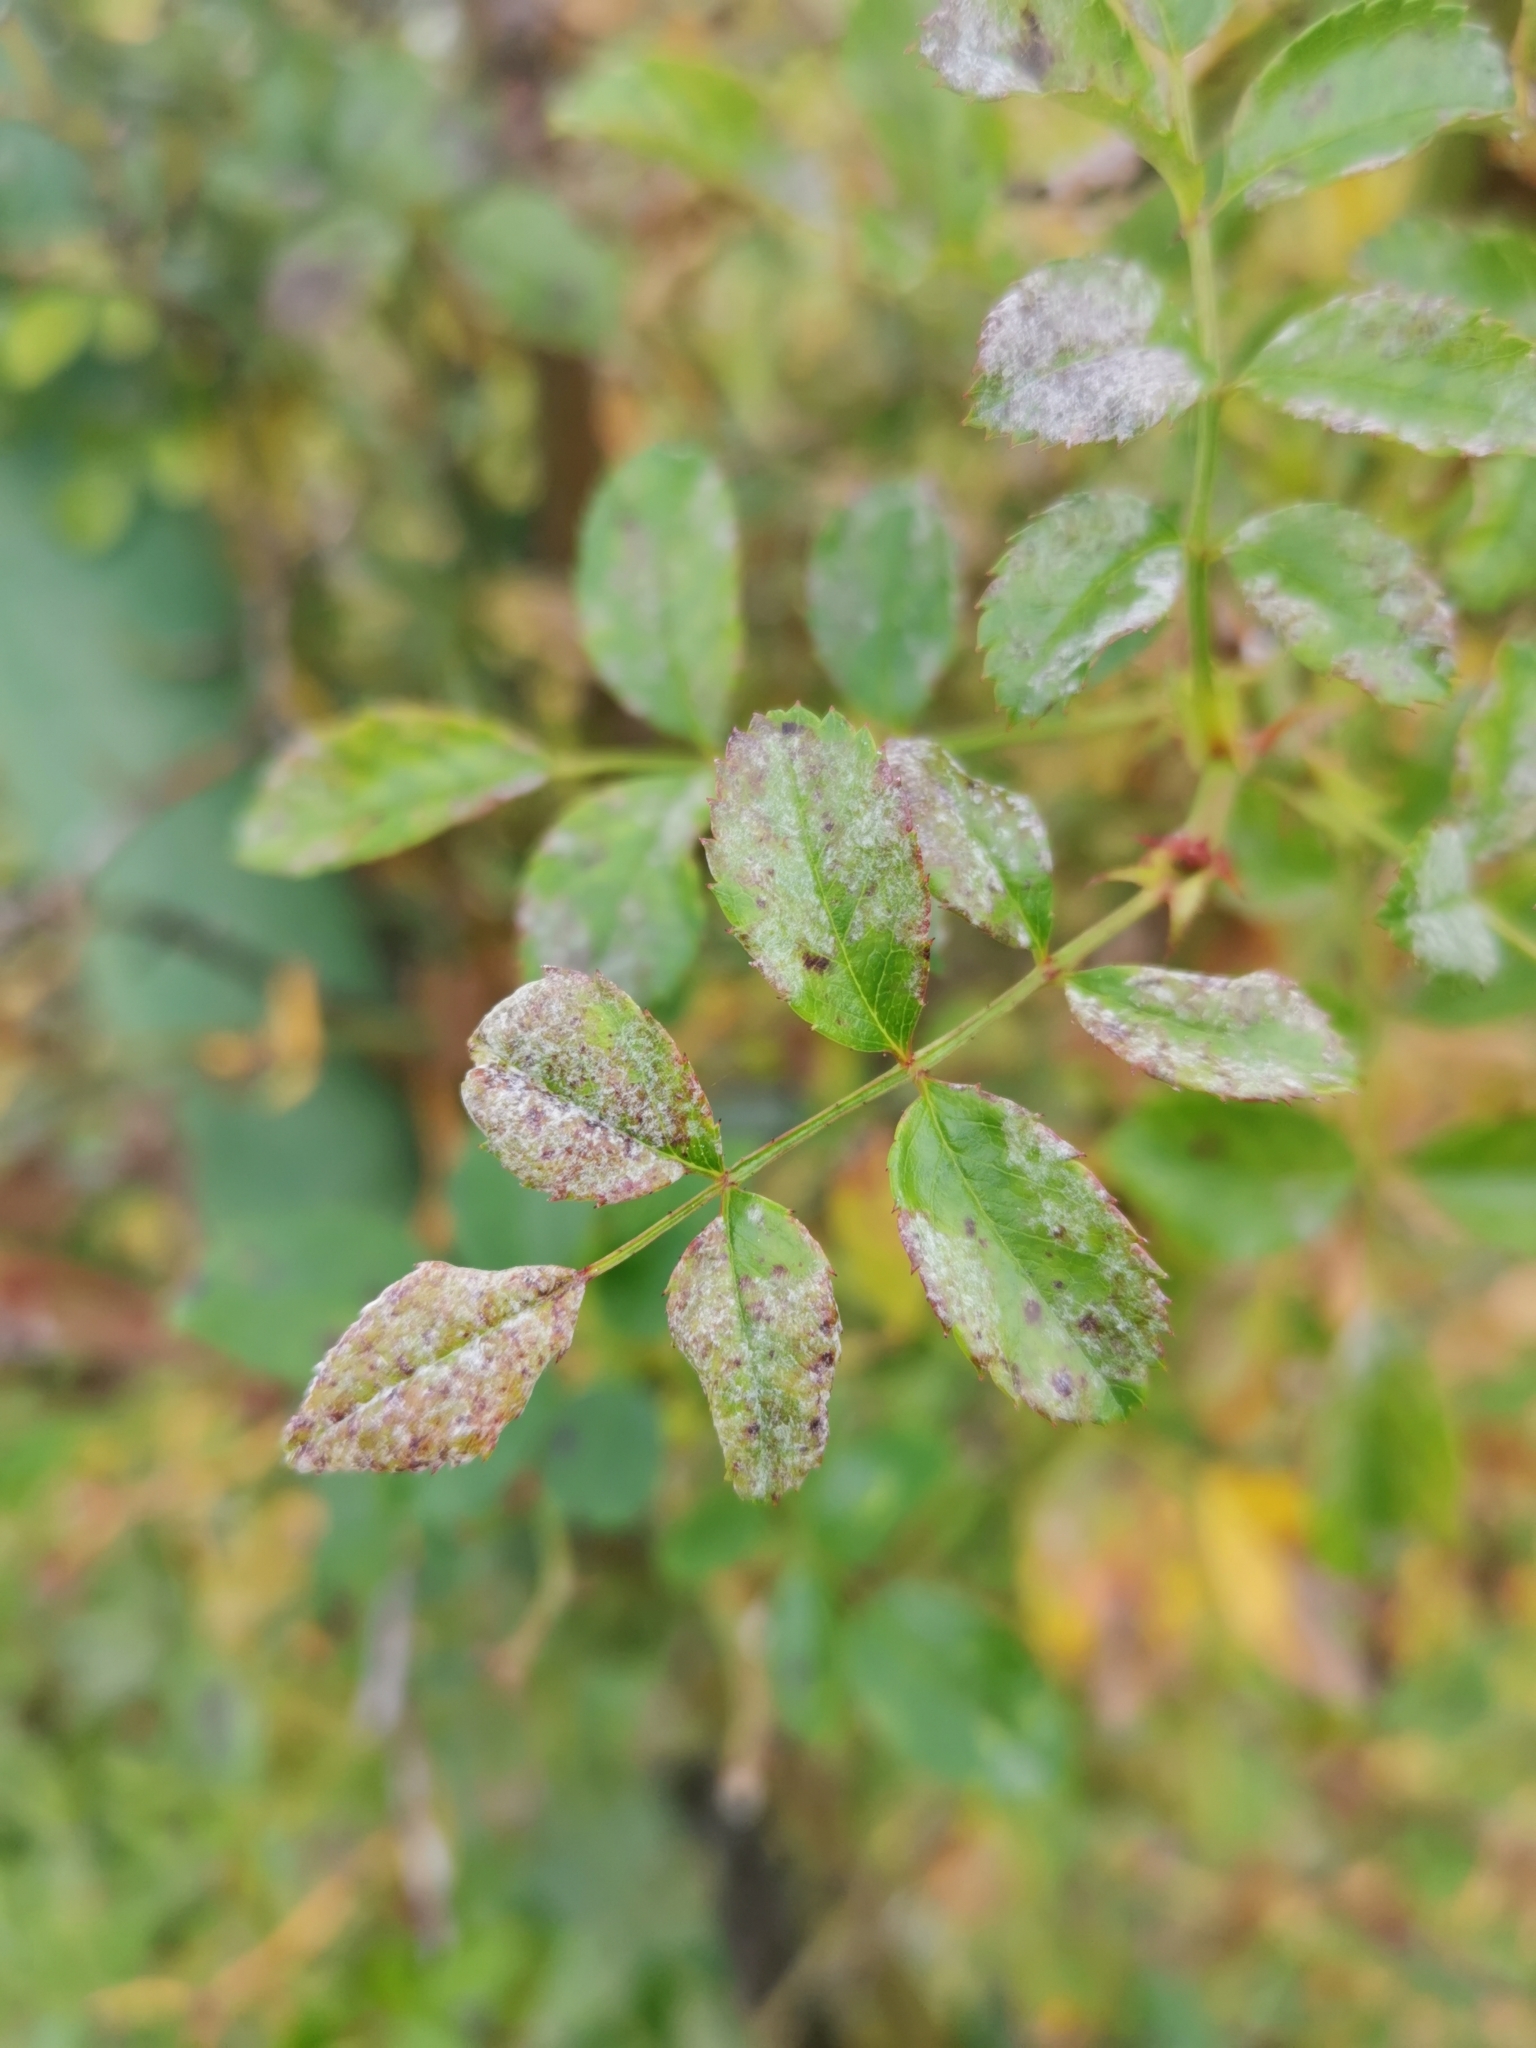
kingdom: Fungi
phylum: Ascomycota
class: Leotiomycetes
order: Helotiales
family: Erysiphaceae
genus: Podosphaera
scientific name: Podosphaera pannosa
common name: Rose mildew
